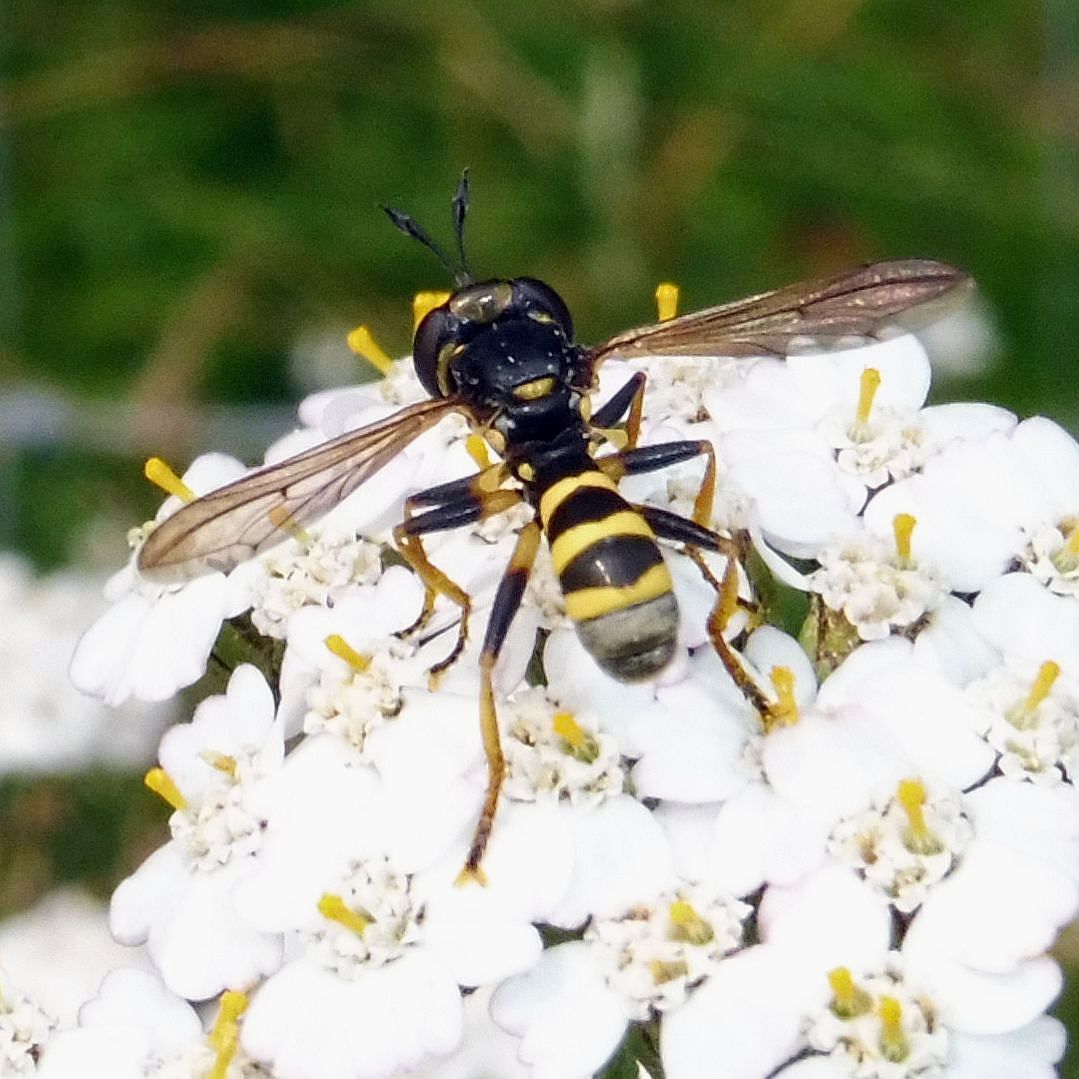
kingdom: Animalia
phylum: Arthropoda
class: Insecta
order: Diptera
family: Conopidae
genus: Conops
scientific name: Conops flavipes
